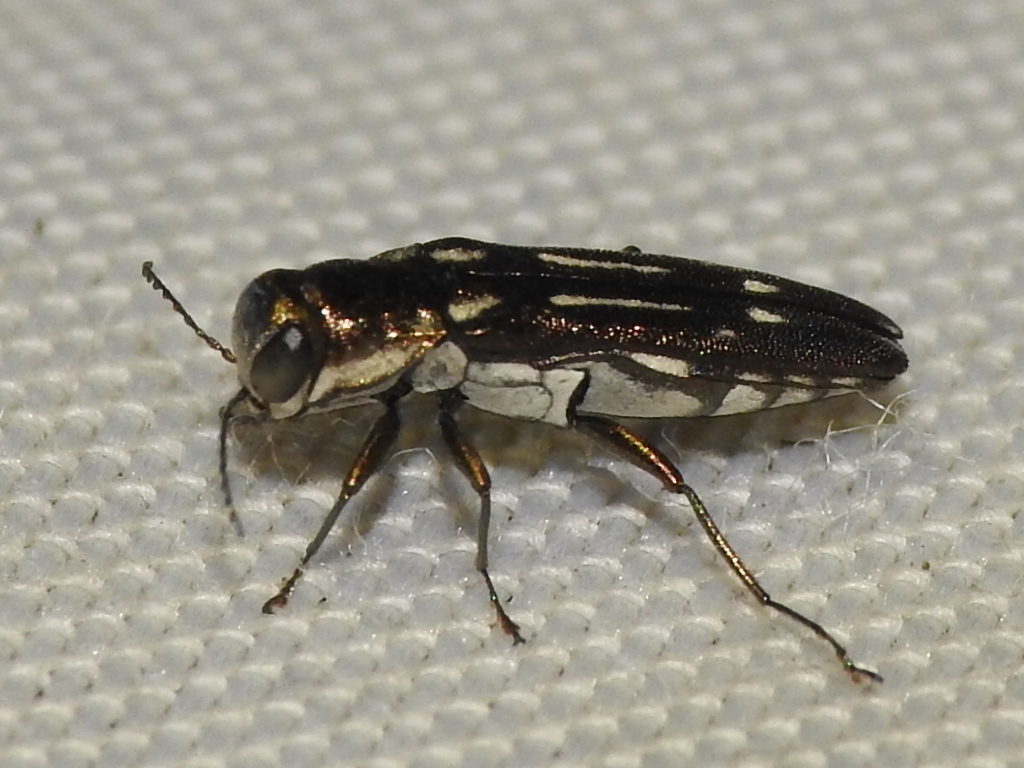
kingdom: Animalia
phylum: Arthropoda
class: Insecta
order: Coleoptera
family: Buprestidae
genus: Agrilus
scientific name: Agrilus scitulus
